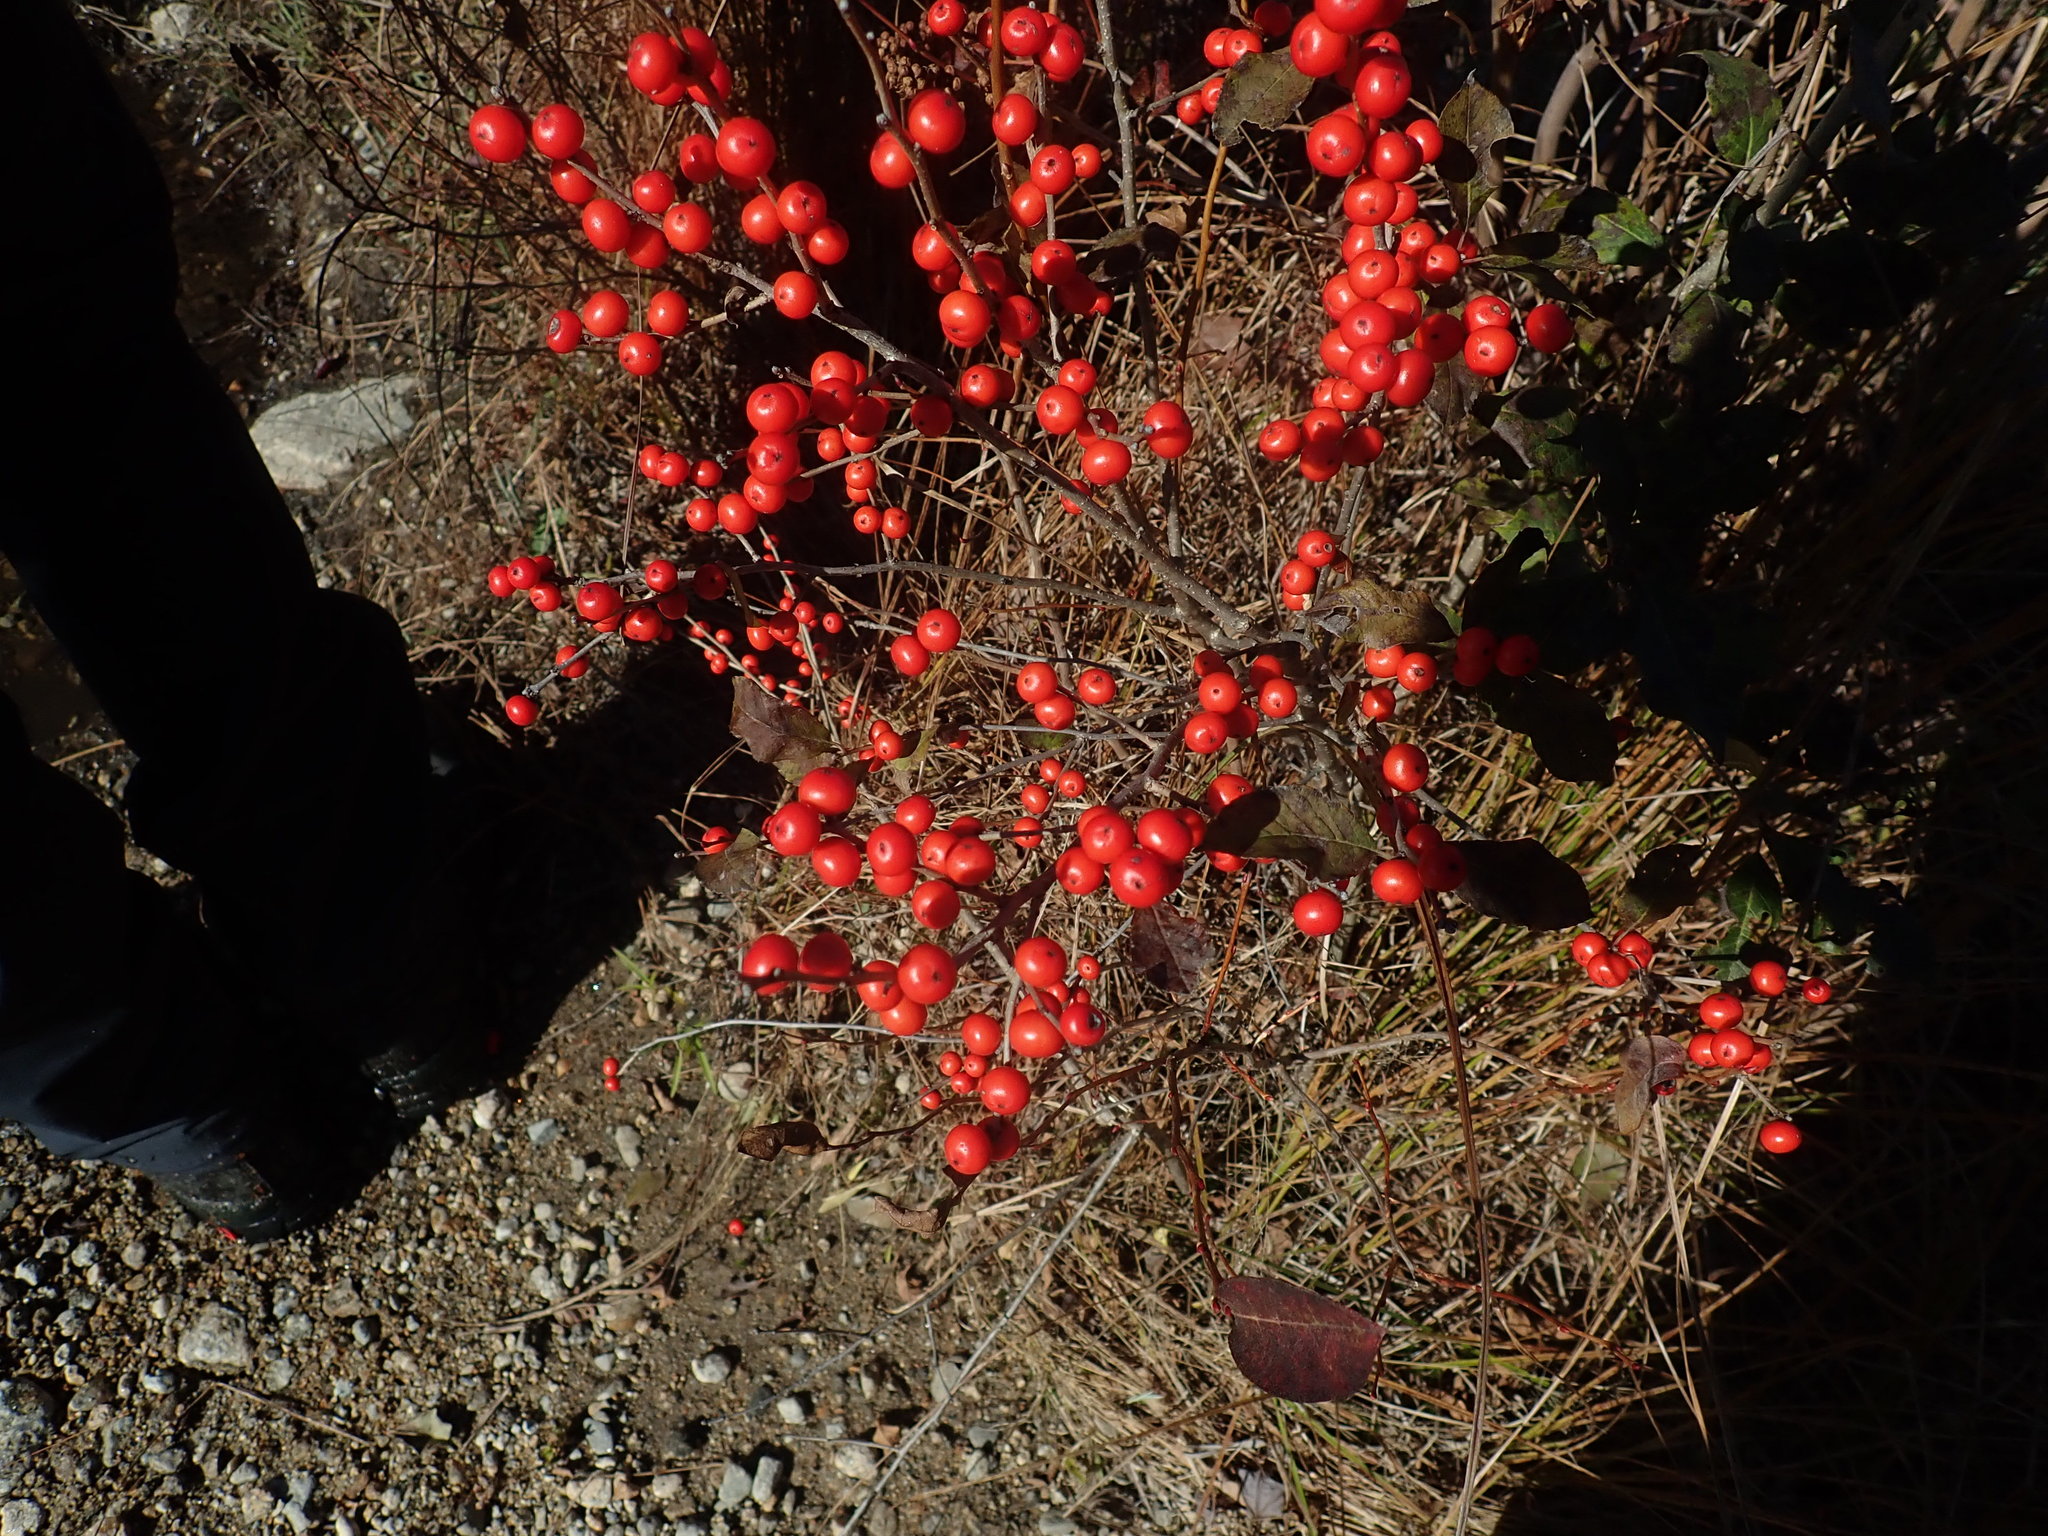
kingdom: Plantae
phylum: Tracheophyta
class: Magnoliopsida
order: Aquifoliales
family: Aquifoliaceae
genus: Ilex
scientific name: Ilex verticillata
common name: Virginia winterberry
